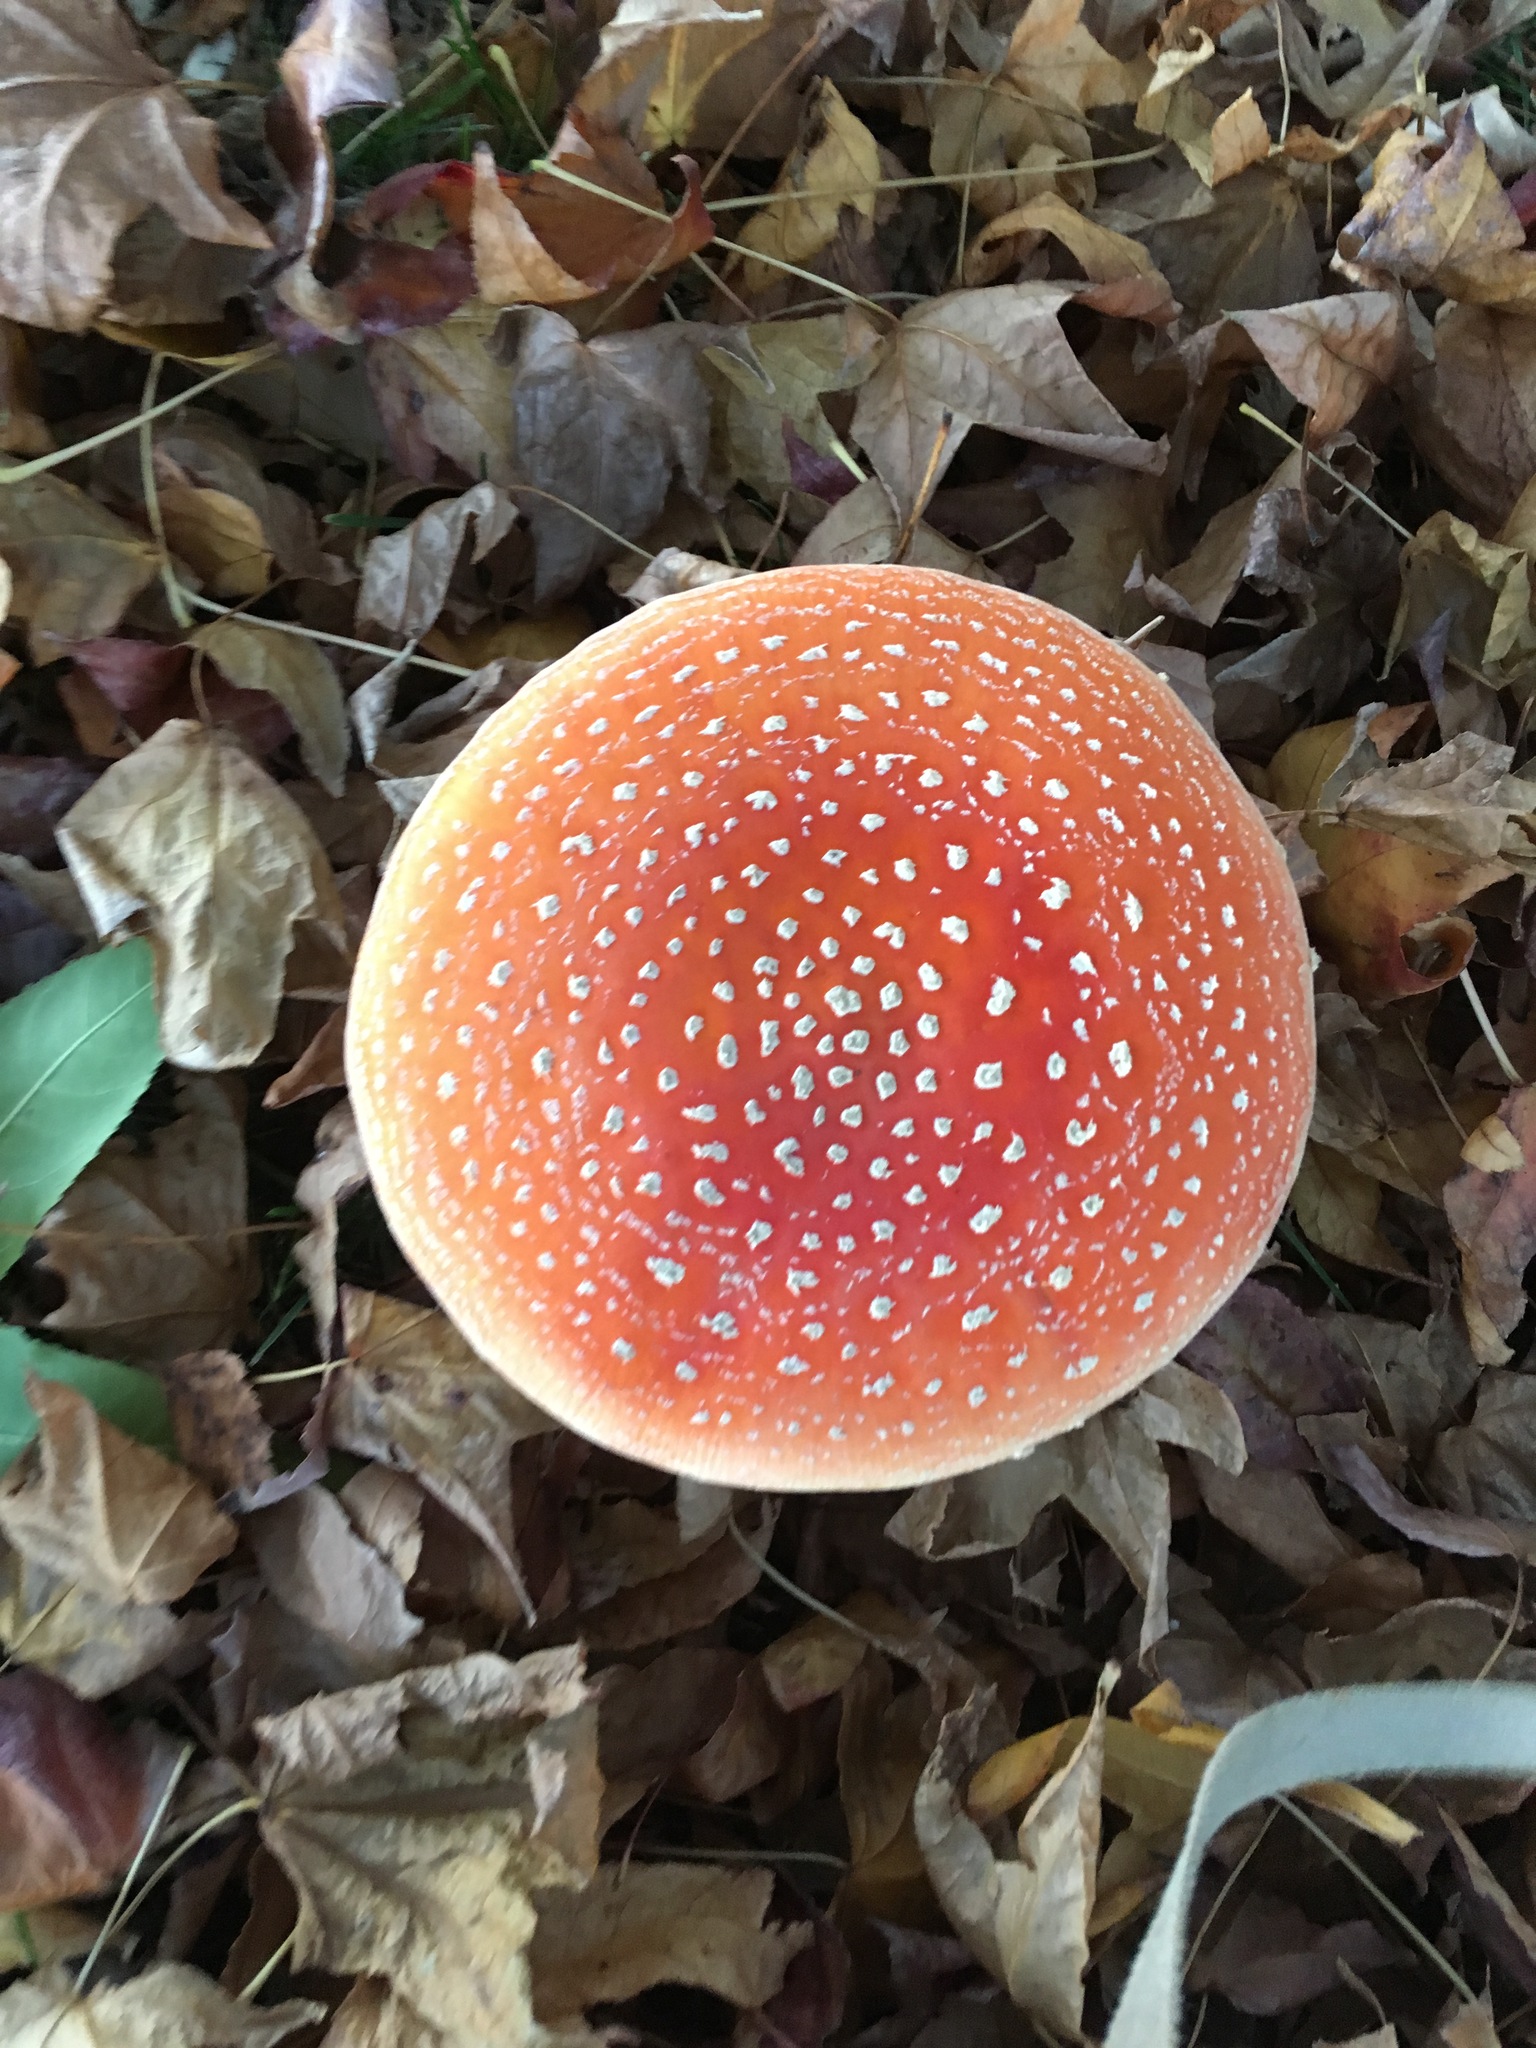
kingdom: Fungi
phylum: Basidiomycota
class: Agaricomycetes
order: Agaricales
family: Amanitaceae
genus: Amanita
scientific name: Amanita muscaria
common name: Fly agaric
